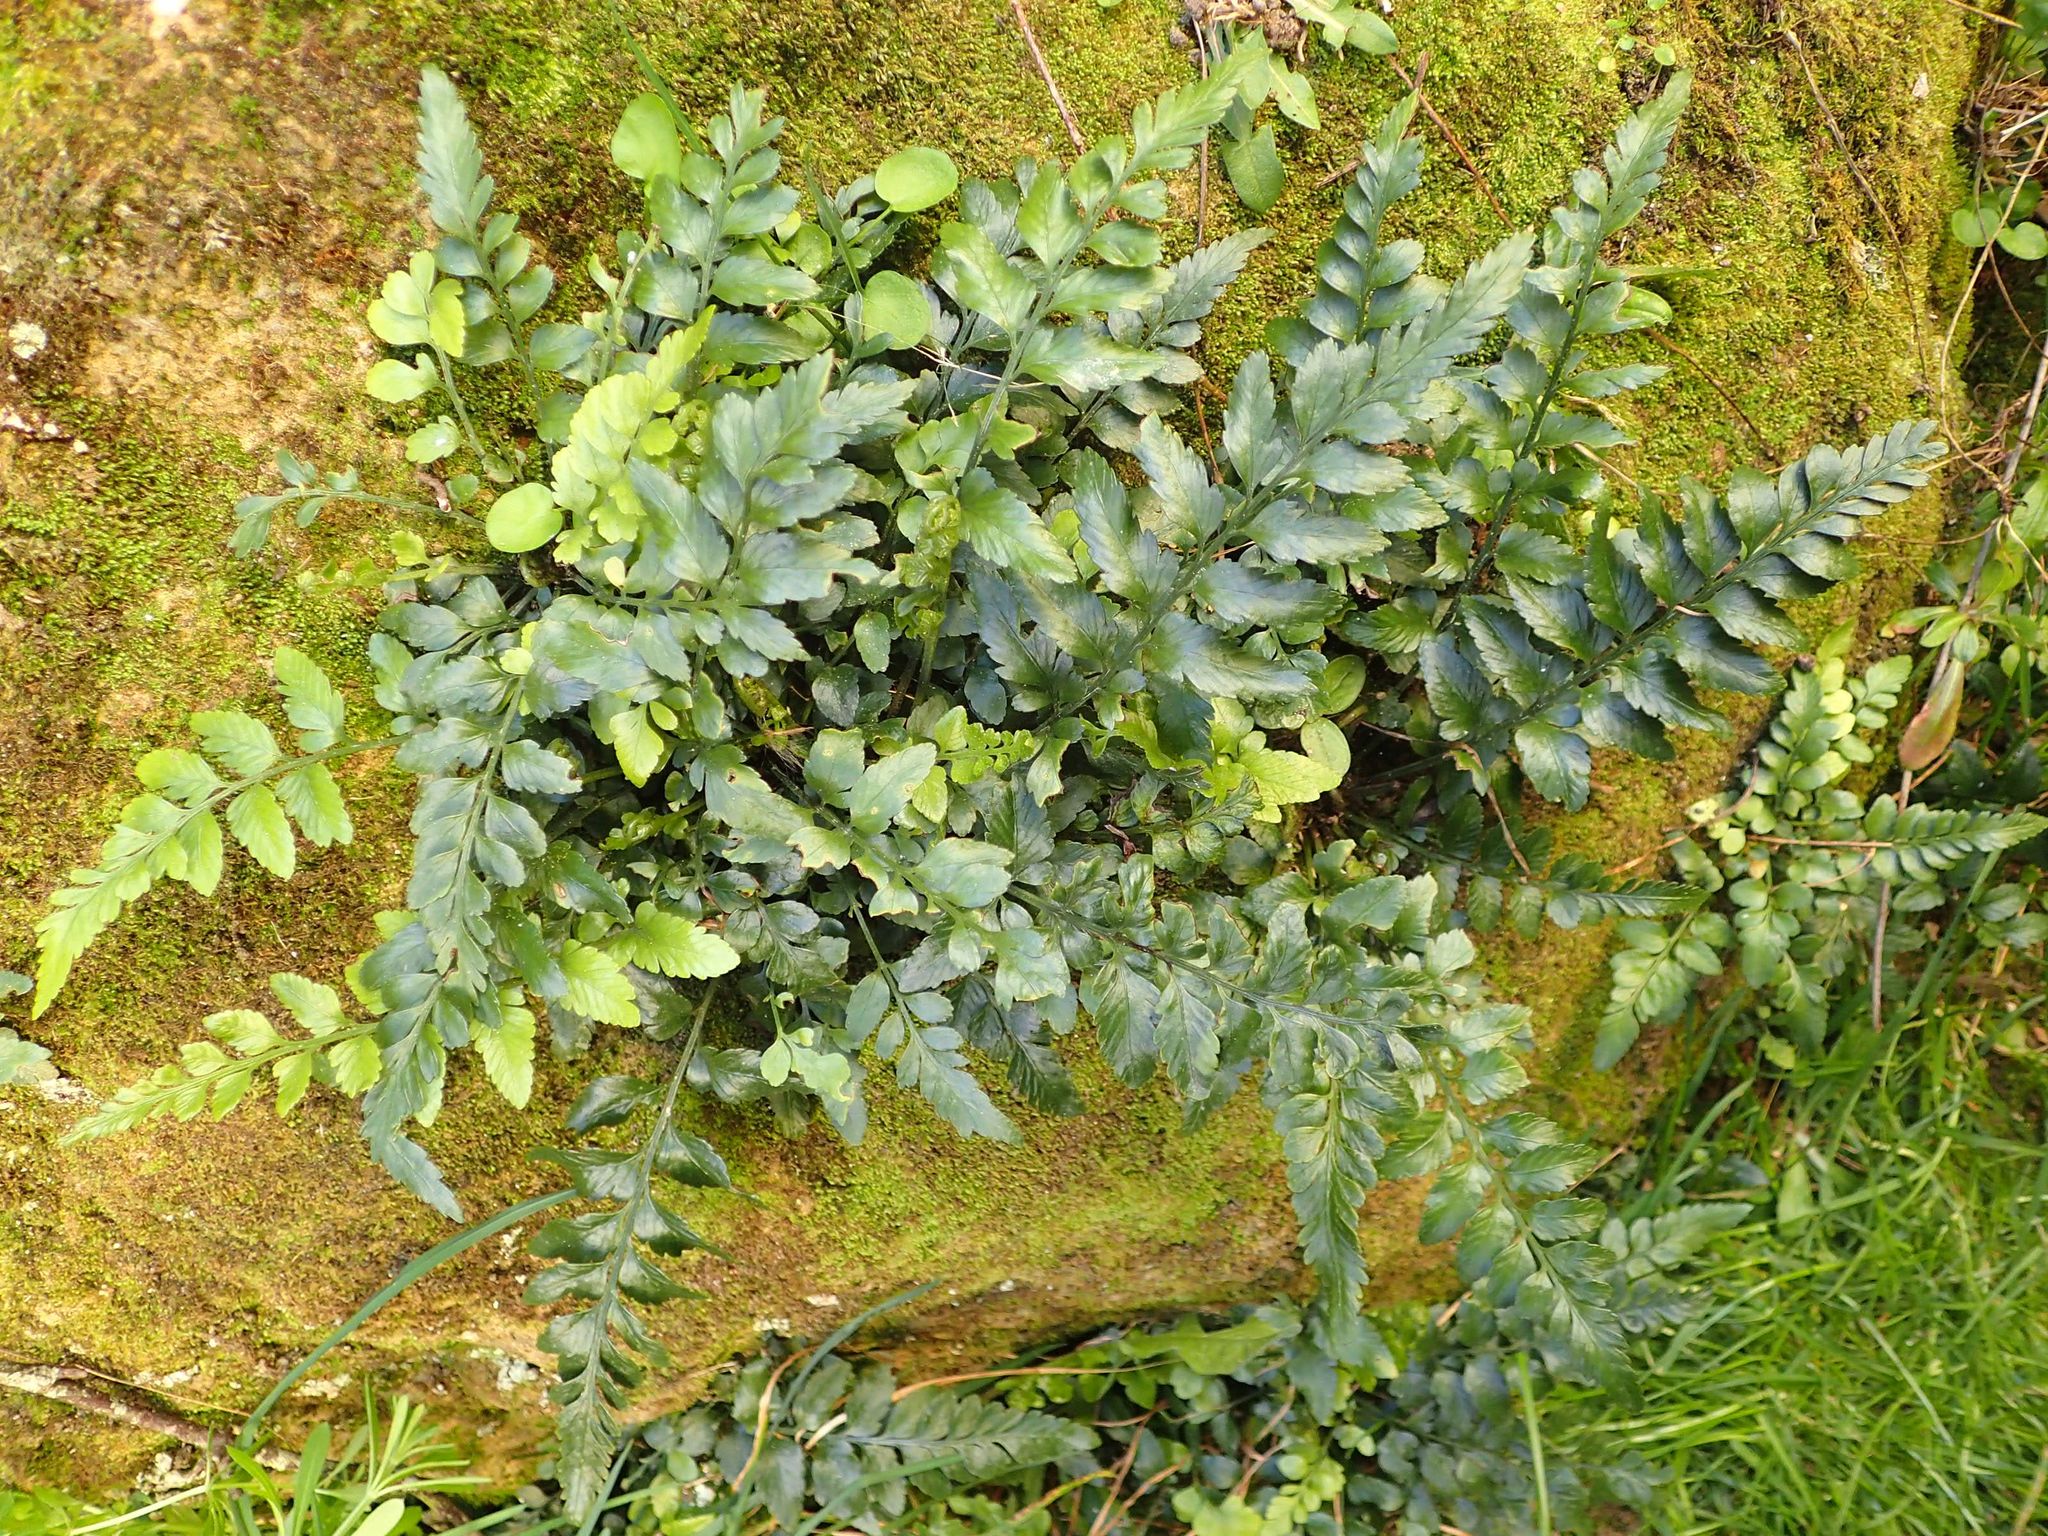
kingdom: Plantae
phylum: Tracheophyta
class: Polypodiopsida
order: Polypodiales
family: Aspleniaceae
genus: Asplenium
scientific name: Asplenium lyallii
